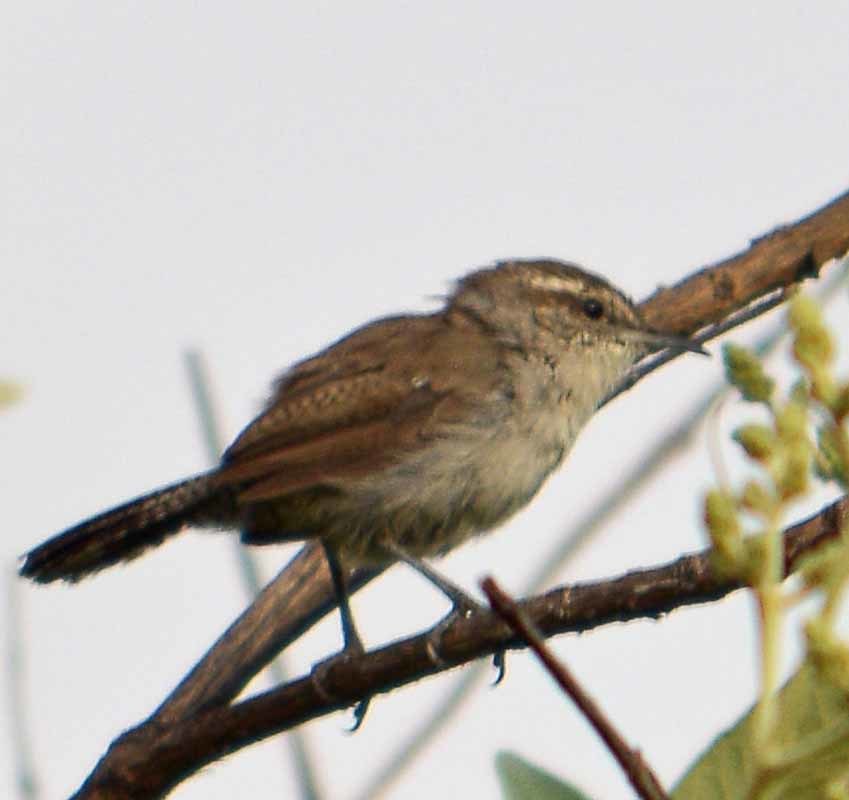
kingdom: Animalia
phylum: Chordata
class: Aves
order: Passeriformes
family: Troglodytidae
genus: Thryomanes
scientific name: Thryomanes bewickii
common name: Bewick's wren
